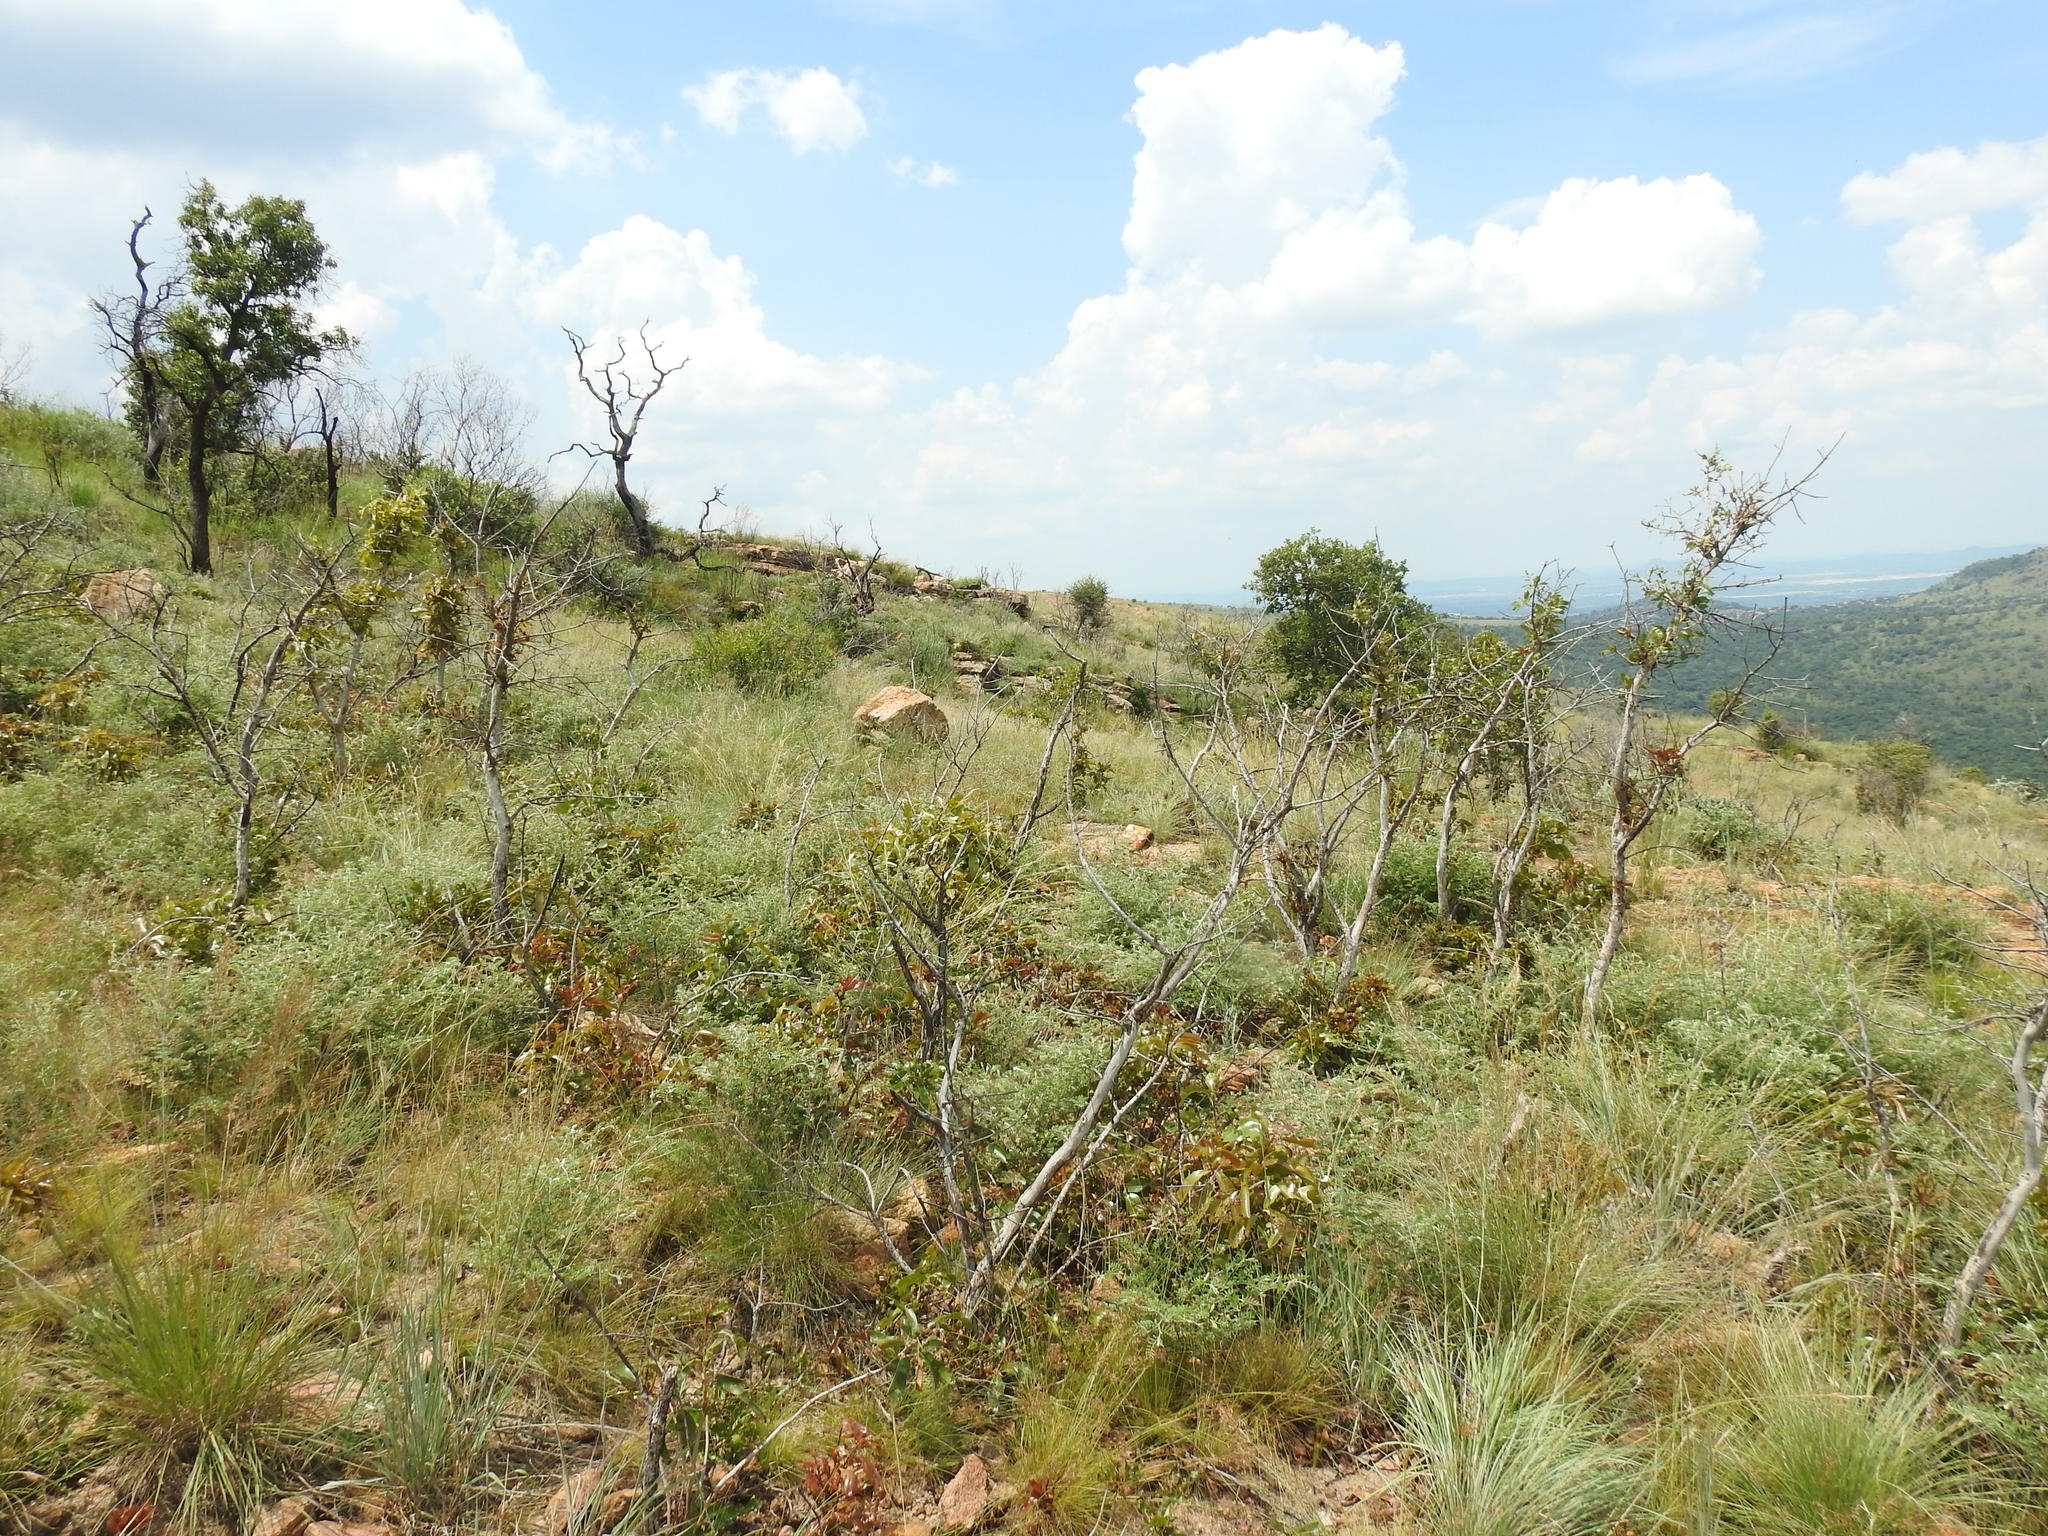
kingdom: Plantae
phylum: Tracheophyta
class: Magnoliopsida
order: Malpighiales
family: Ochnaceae
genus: Ochna
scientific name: Ochna pulchra
